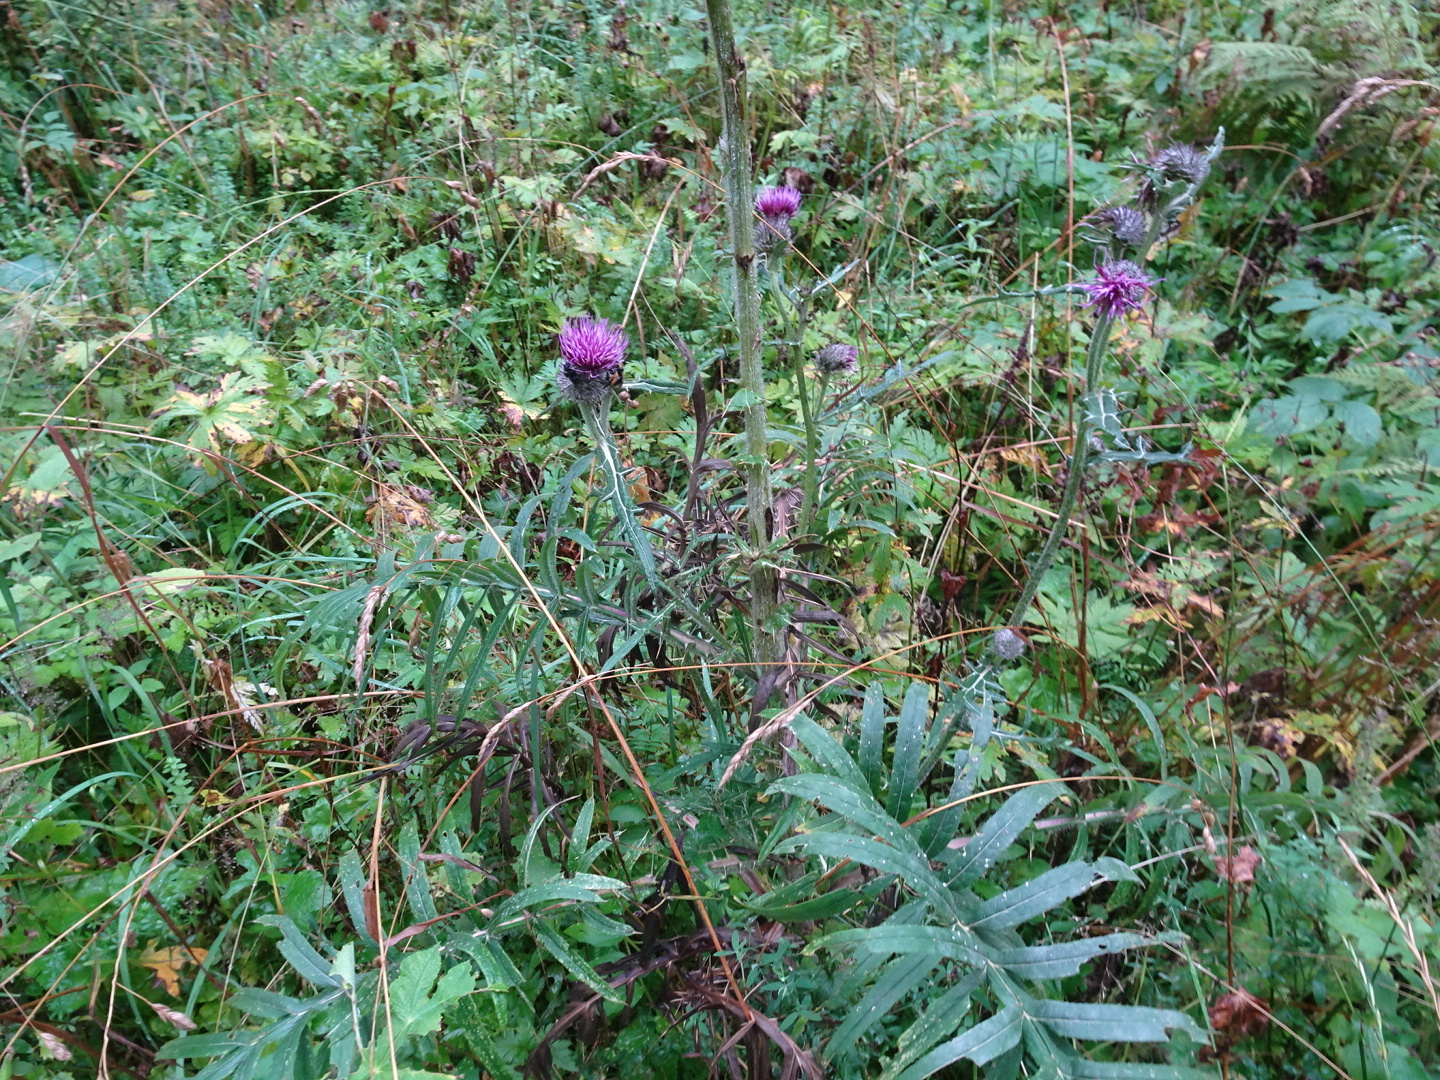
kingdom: Plantae
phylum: Tracheophyta
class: Magnoliopsida
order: Asterales
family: Asteraceae
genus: Lophiolepis
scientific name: Lophiolepis eriophora
